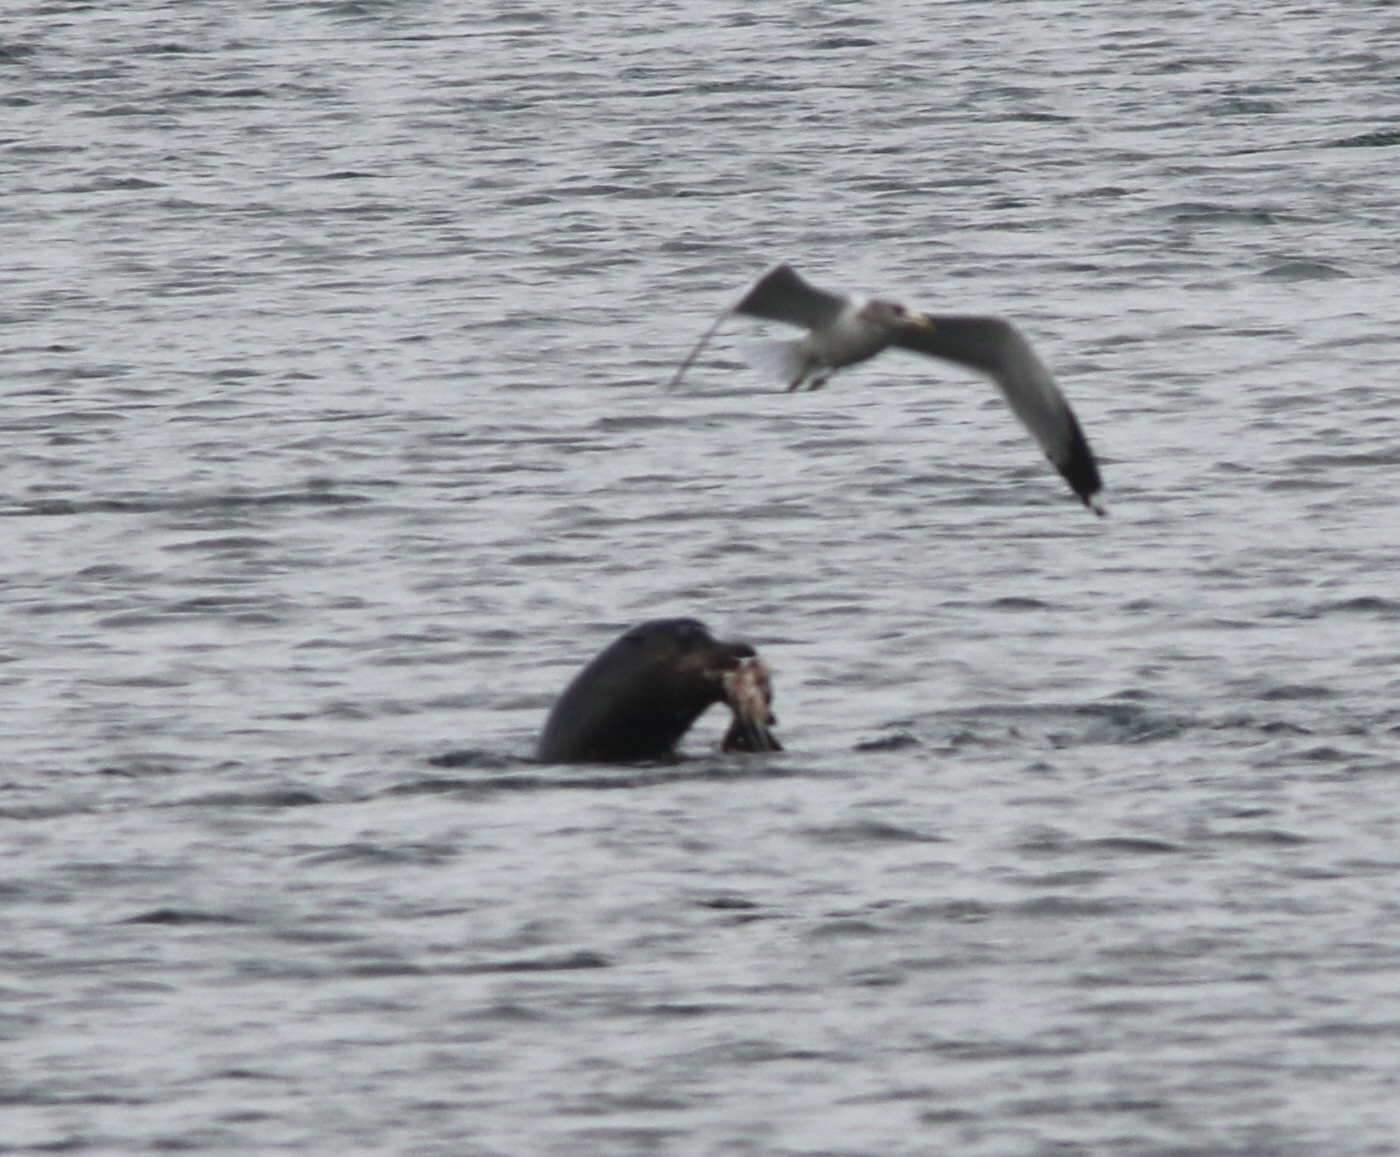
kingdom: Animalia
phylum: Chordata
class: Mammalia
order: Carnivora
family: Otariidae
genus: Zalophus
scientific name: Zalophus californianus
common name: California sea lion
